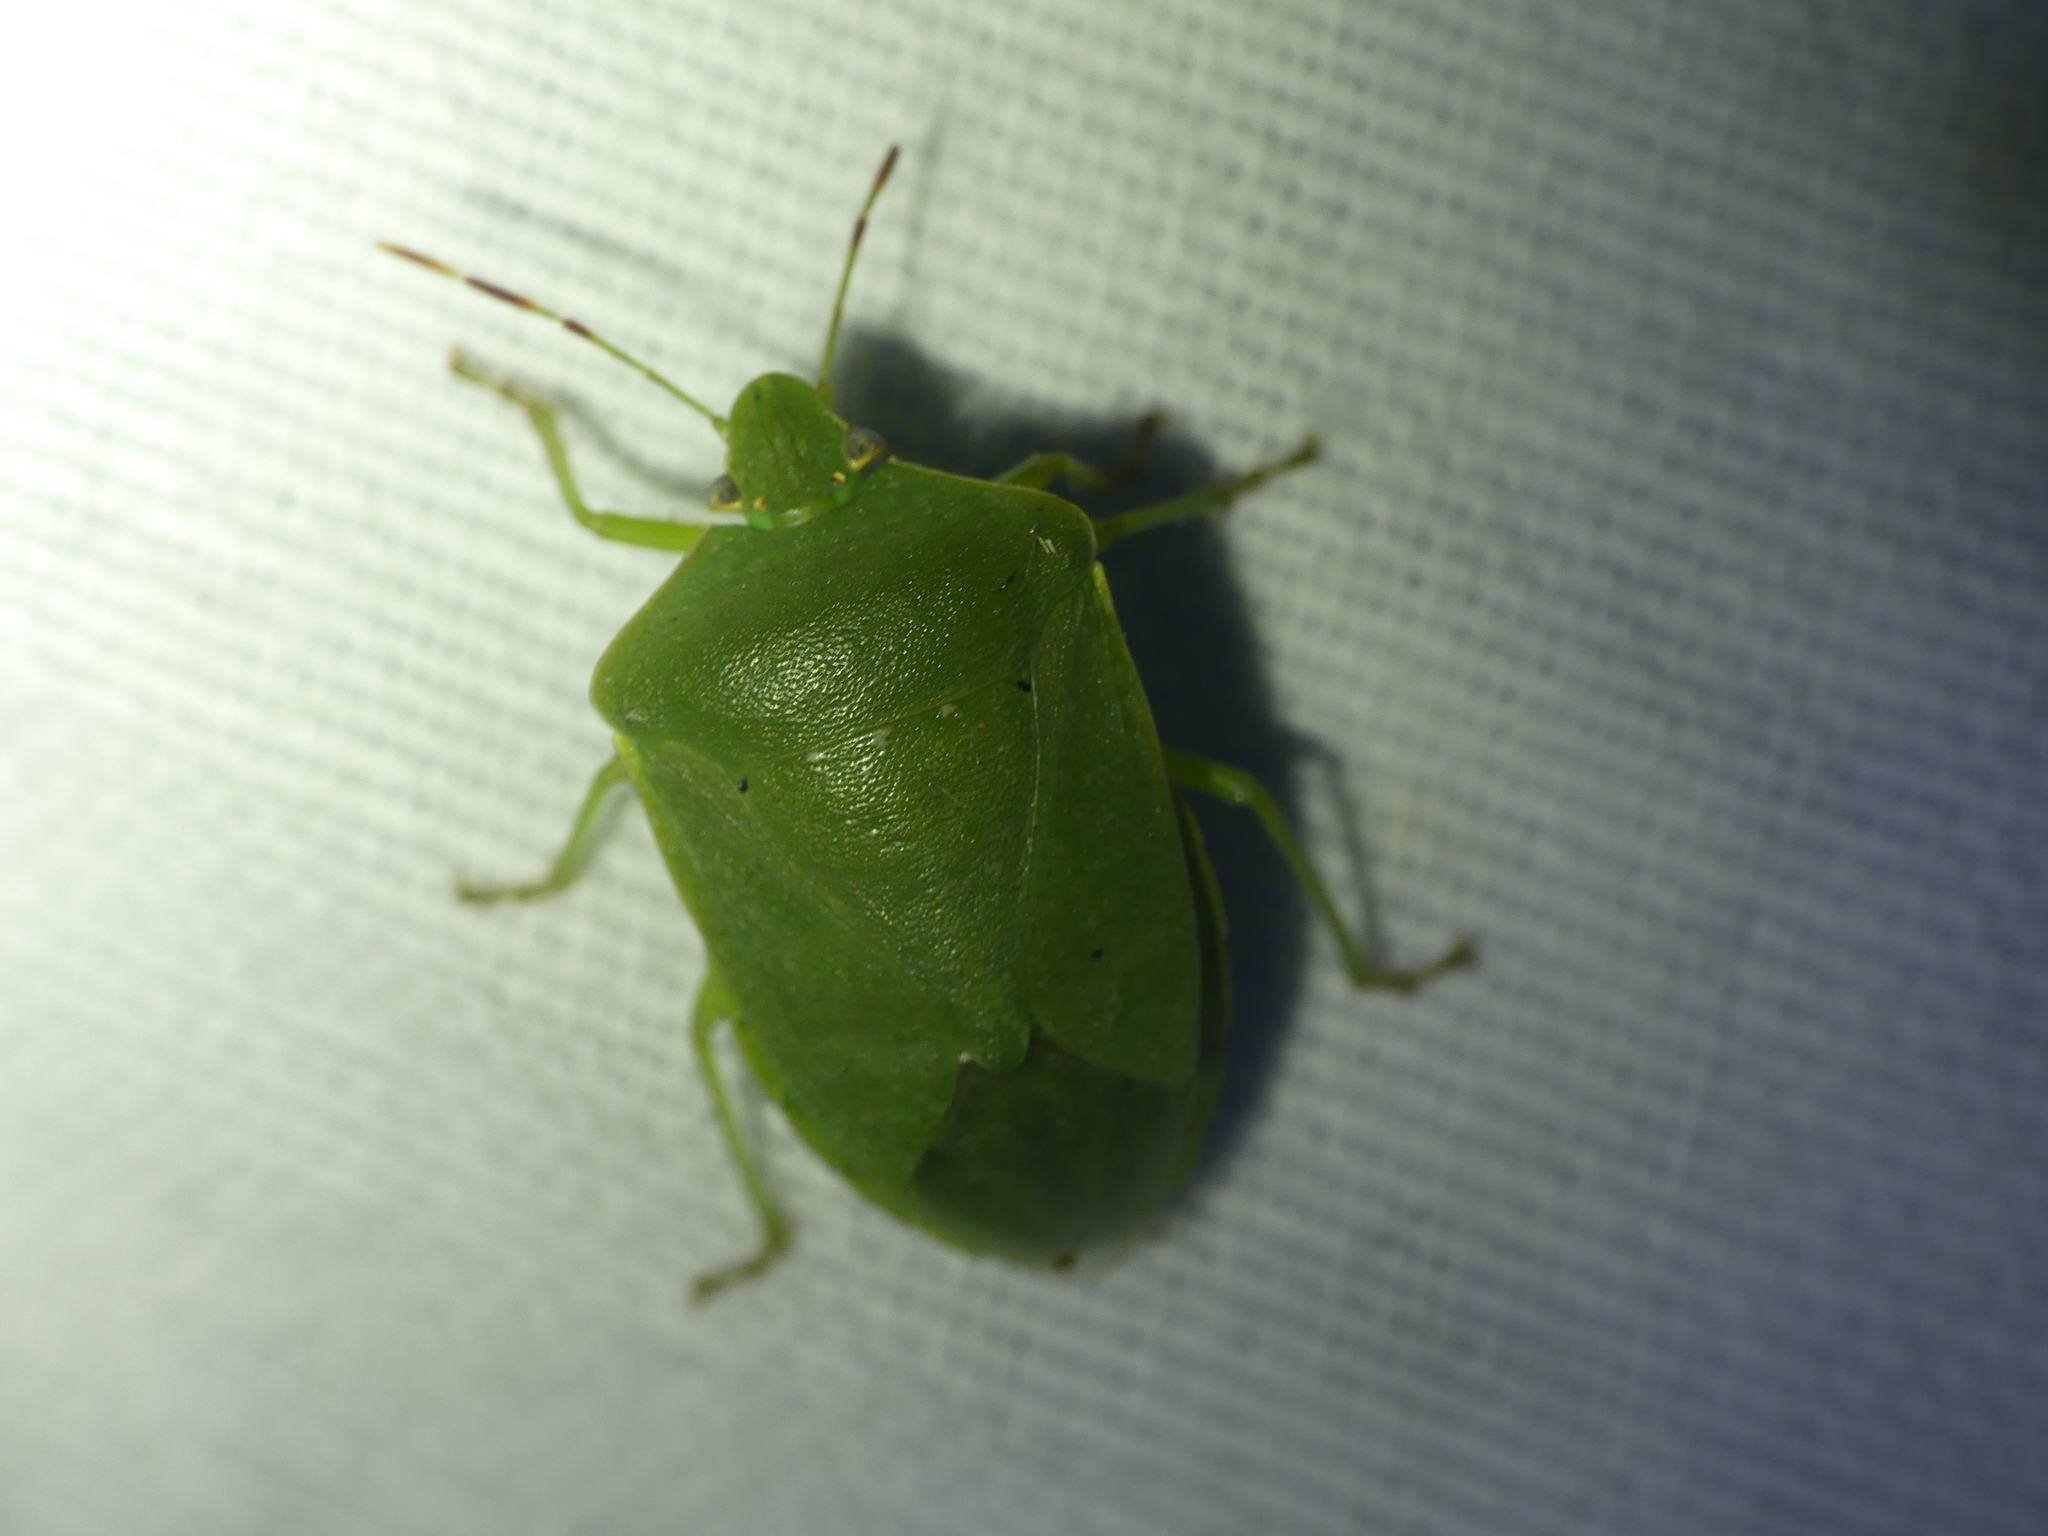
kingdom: Animalia
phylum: Arthropoda
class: Insecta
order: Hemiptera
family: Pentatomidae
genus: Nezara
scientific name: Nezara viridula
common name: Southern green stink bug
